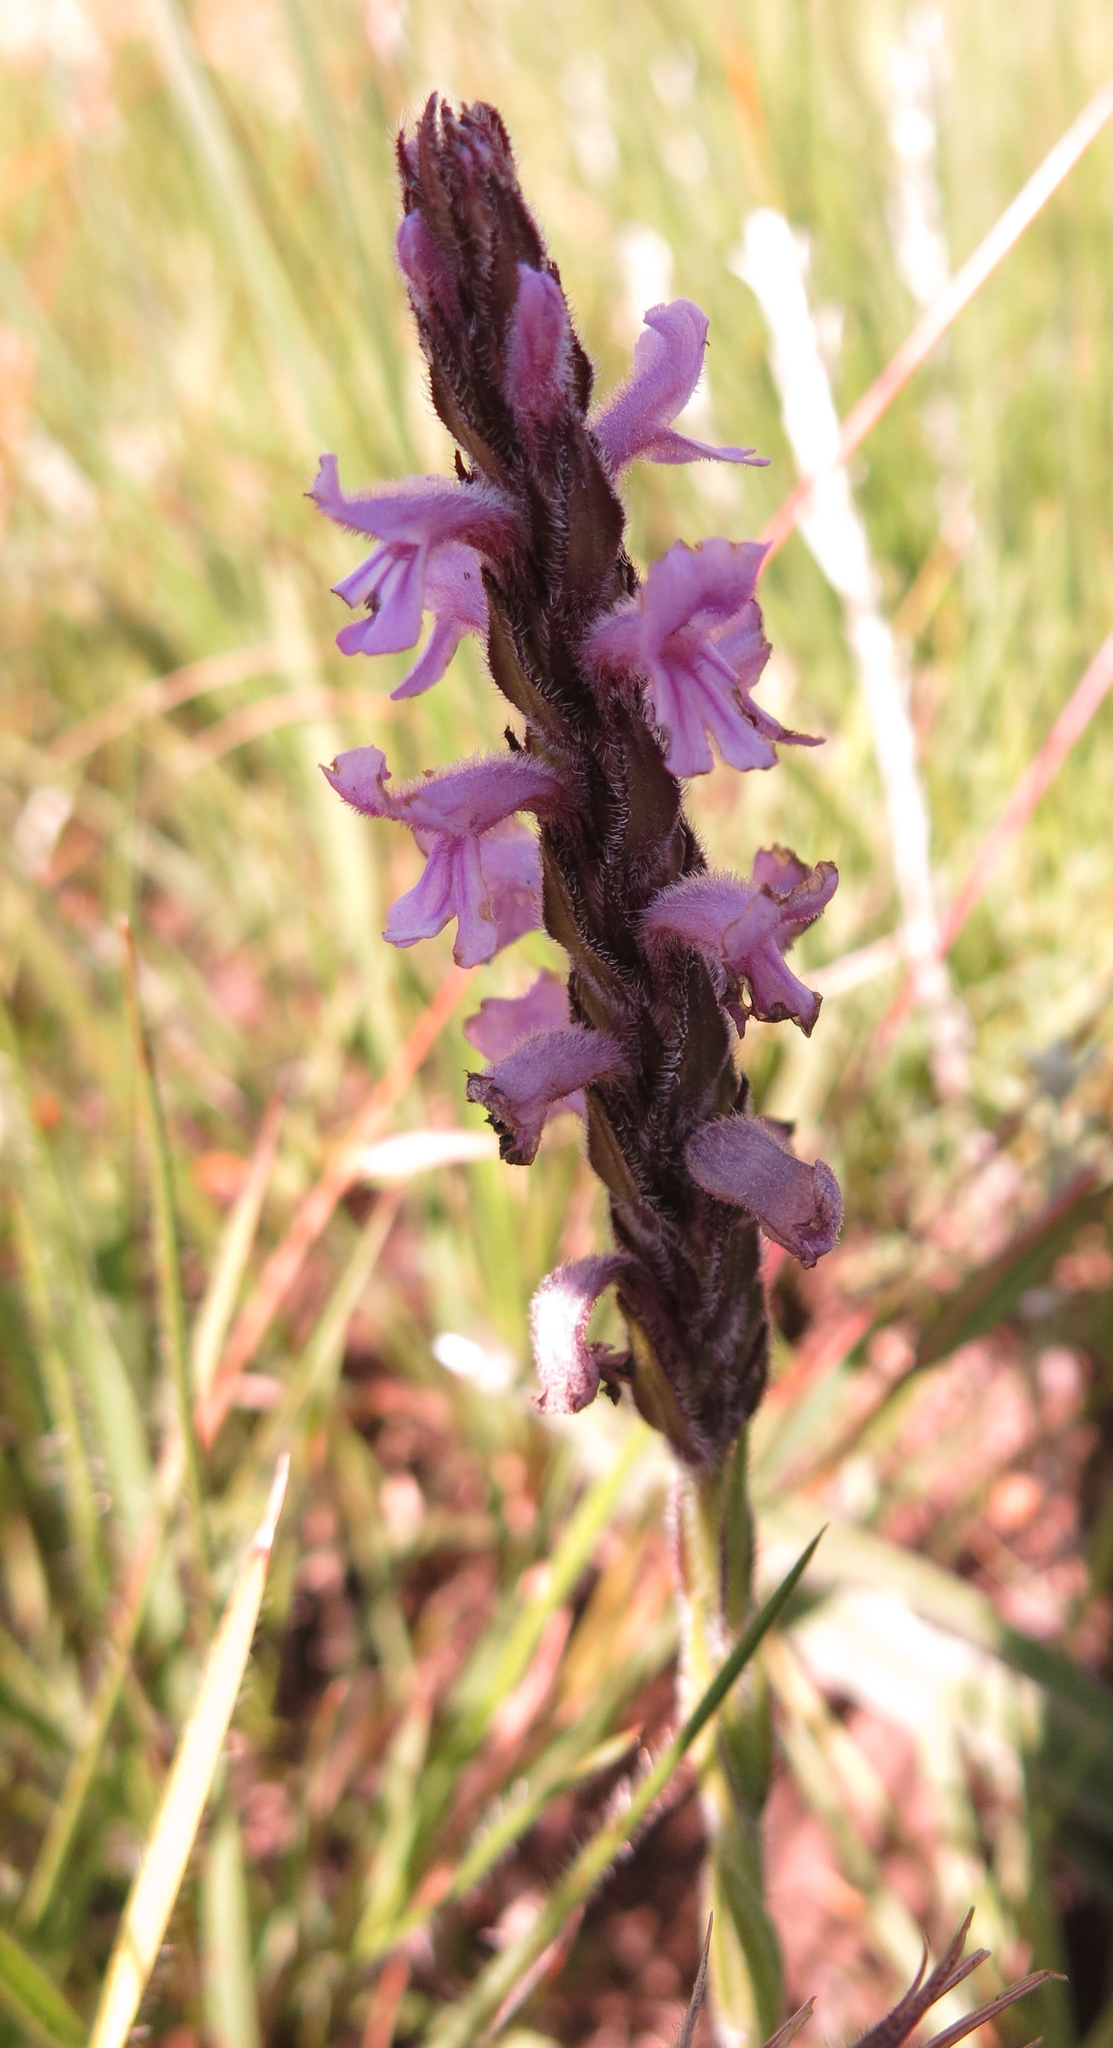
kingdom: Plantae
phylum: Tracheophyta
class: Magnoliopsida
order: Lamiales
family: Orobanchaceae
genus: Striga
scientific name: Striga bilabiata
